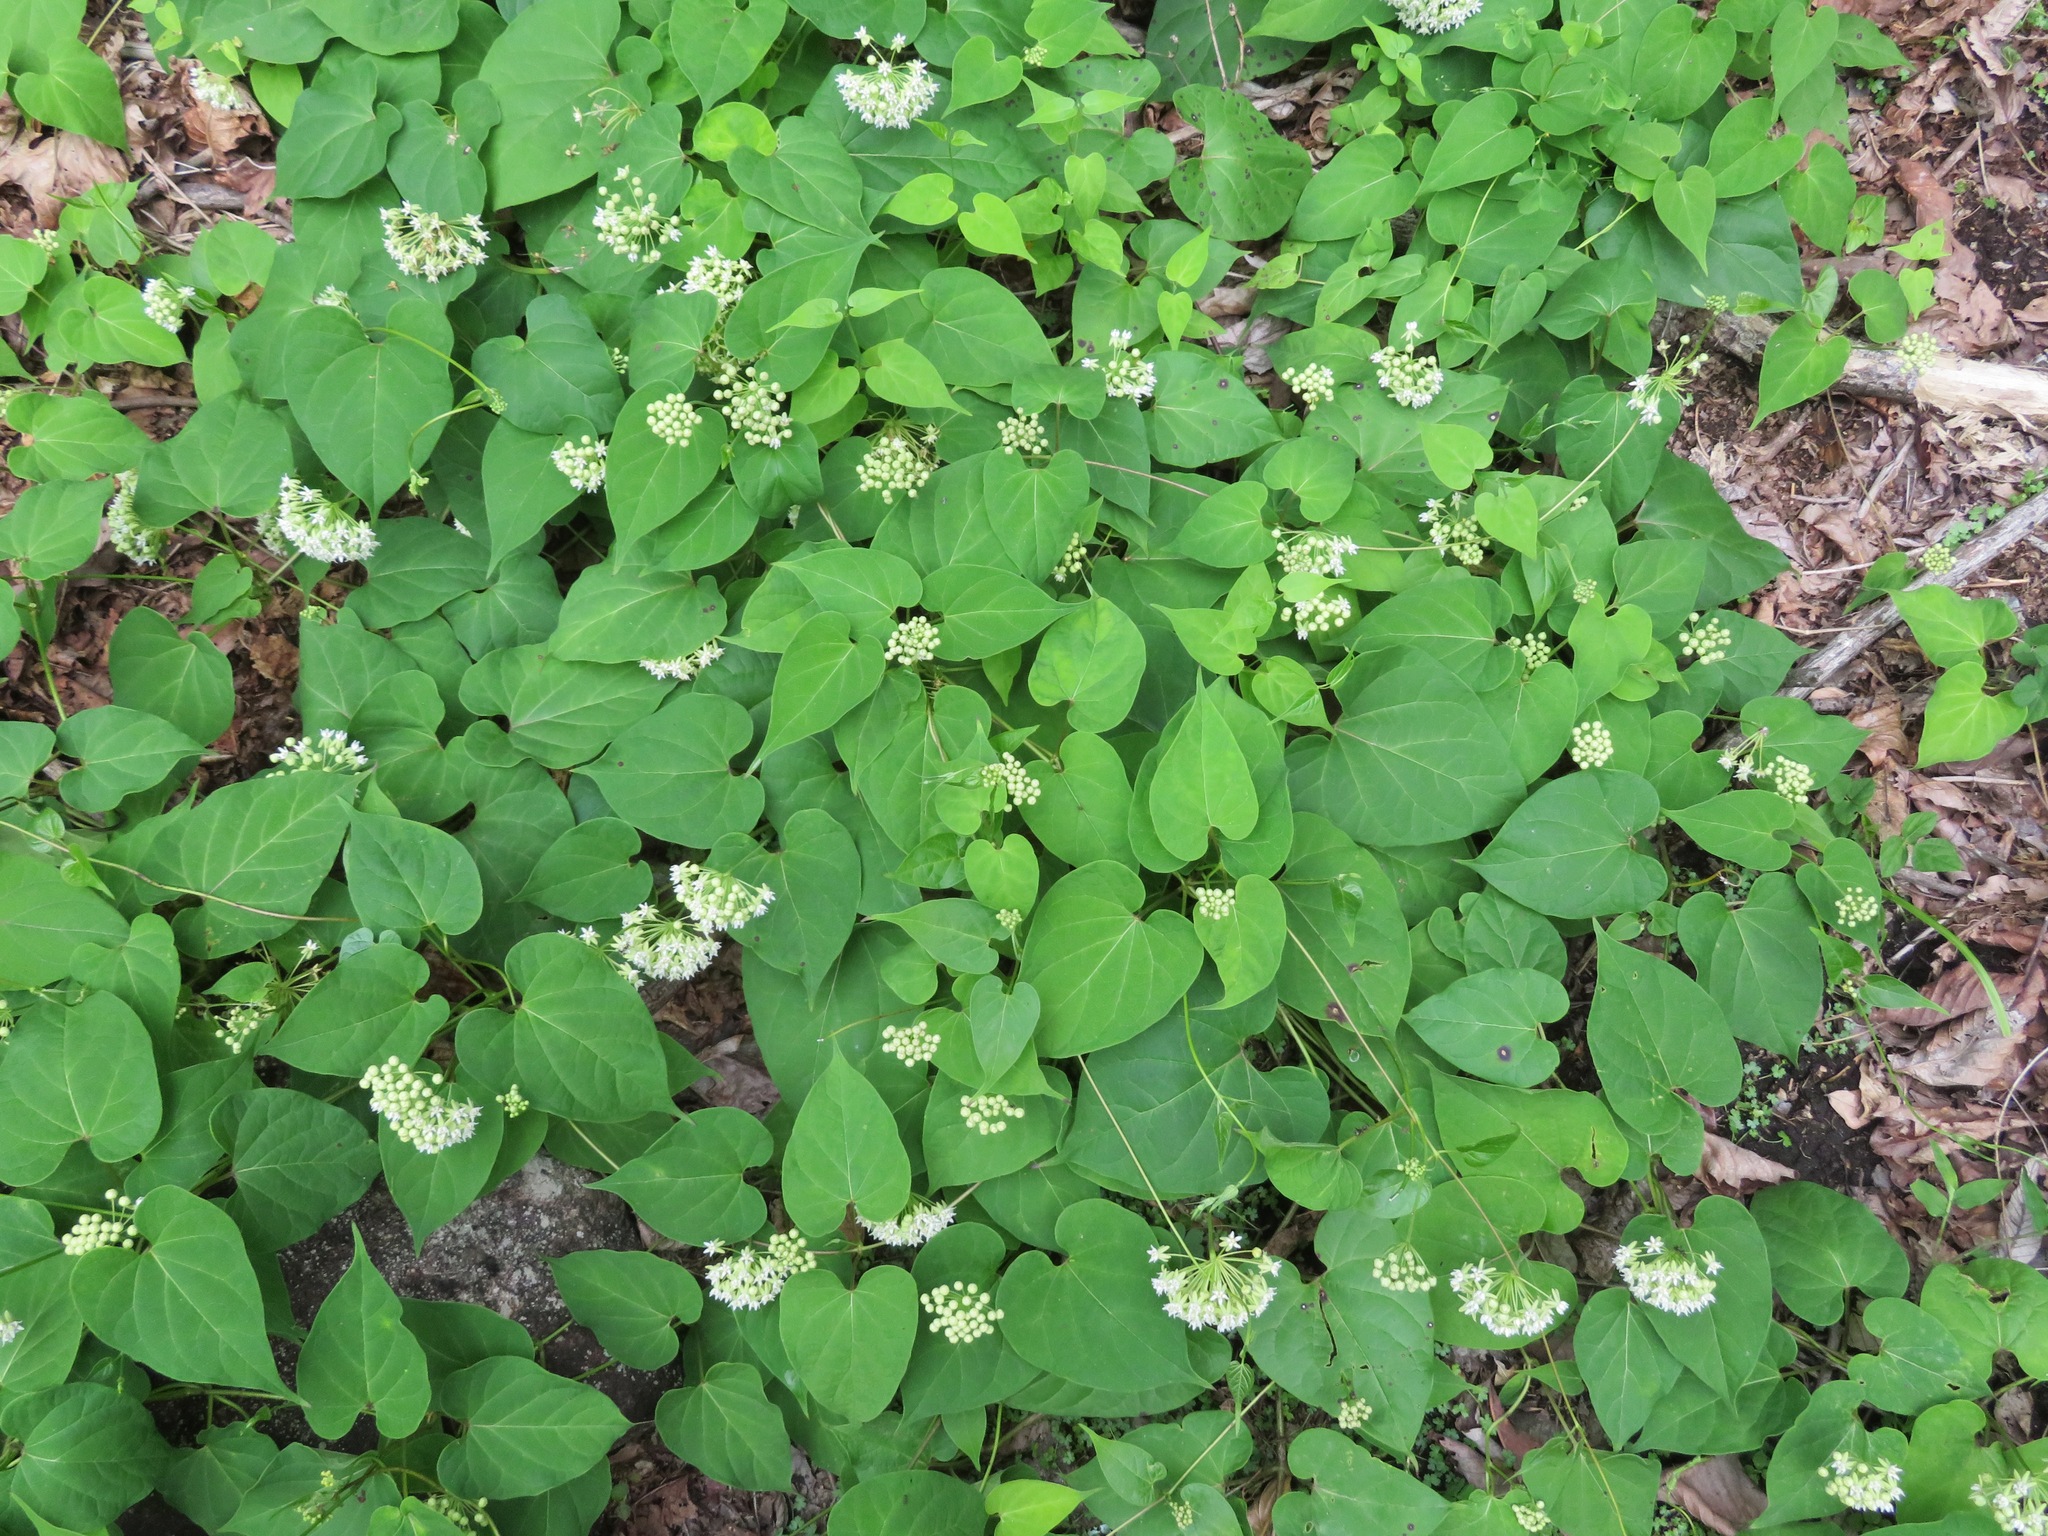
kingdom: Plantae
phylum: Tracheophyta
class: Magnoliopsida
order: Gentianales
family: Apocynaceae
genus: Cynanchum
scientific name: Cynanchum maximoviczii
